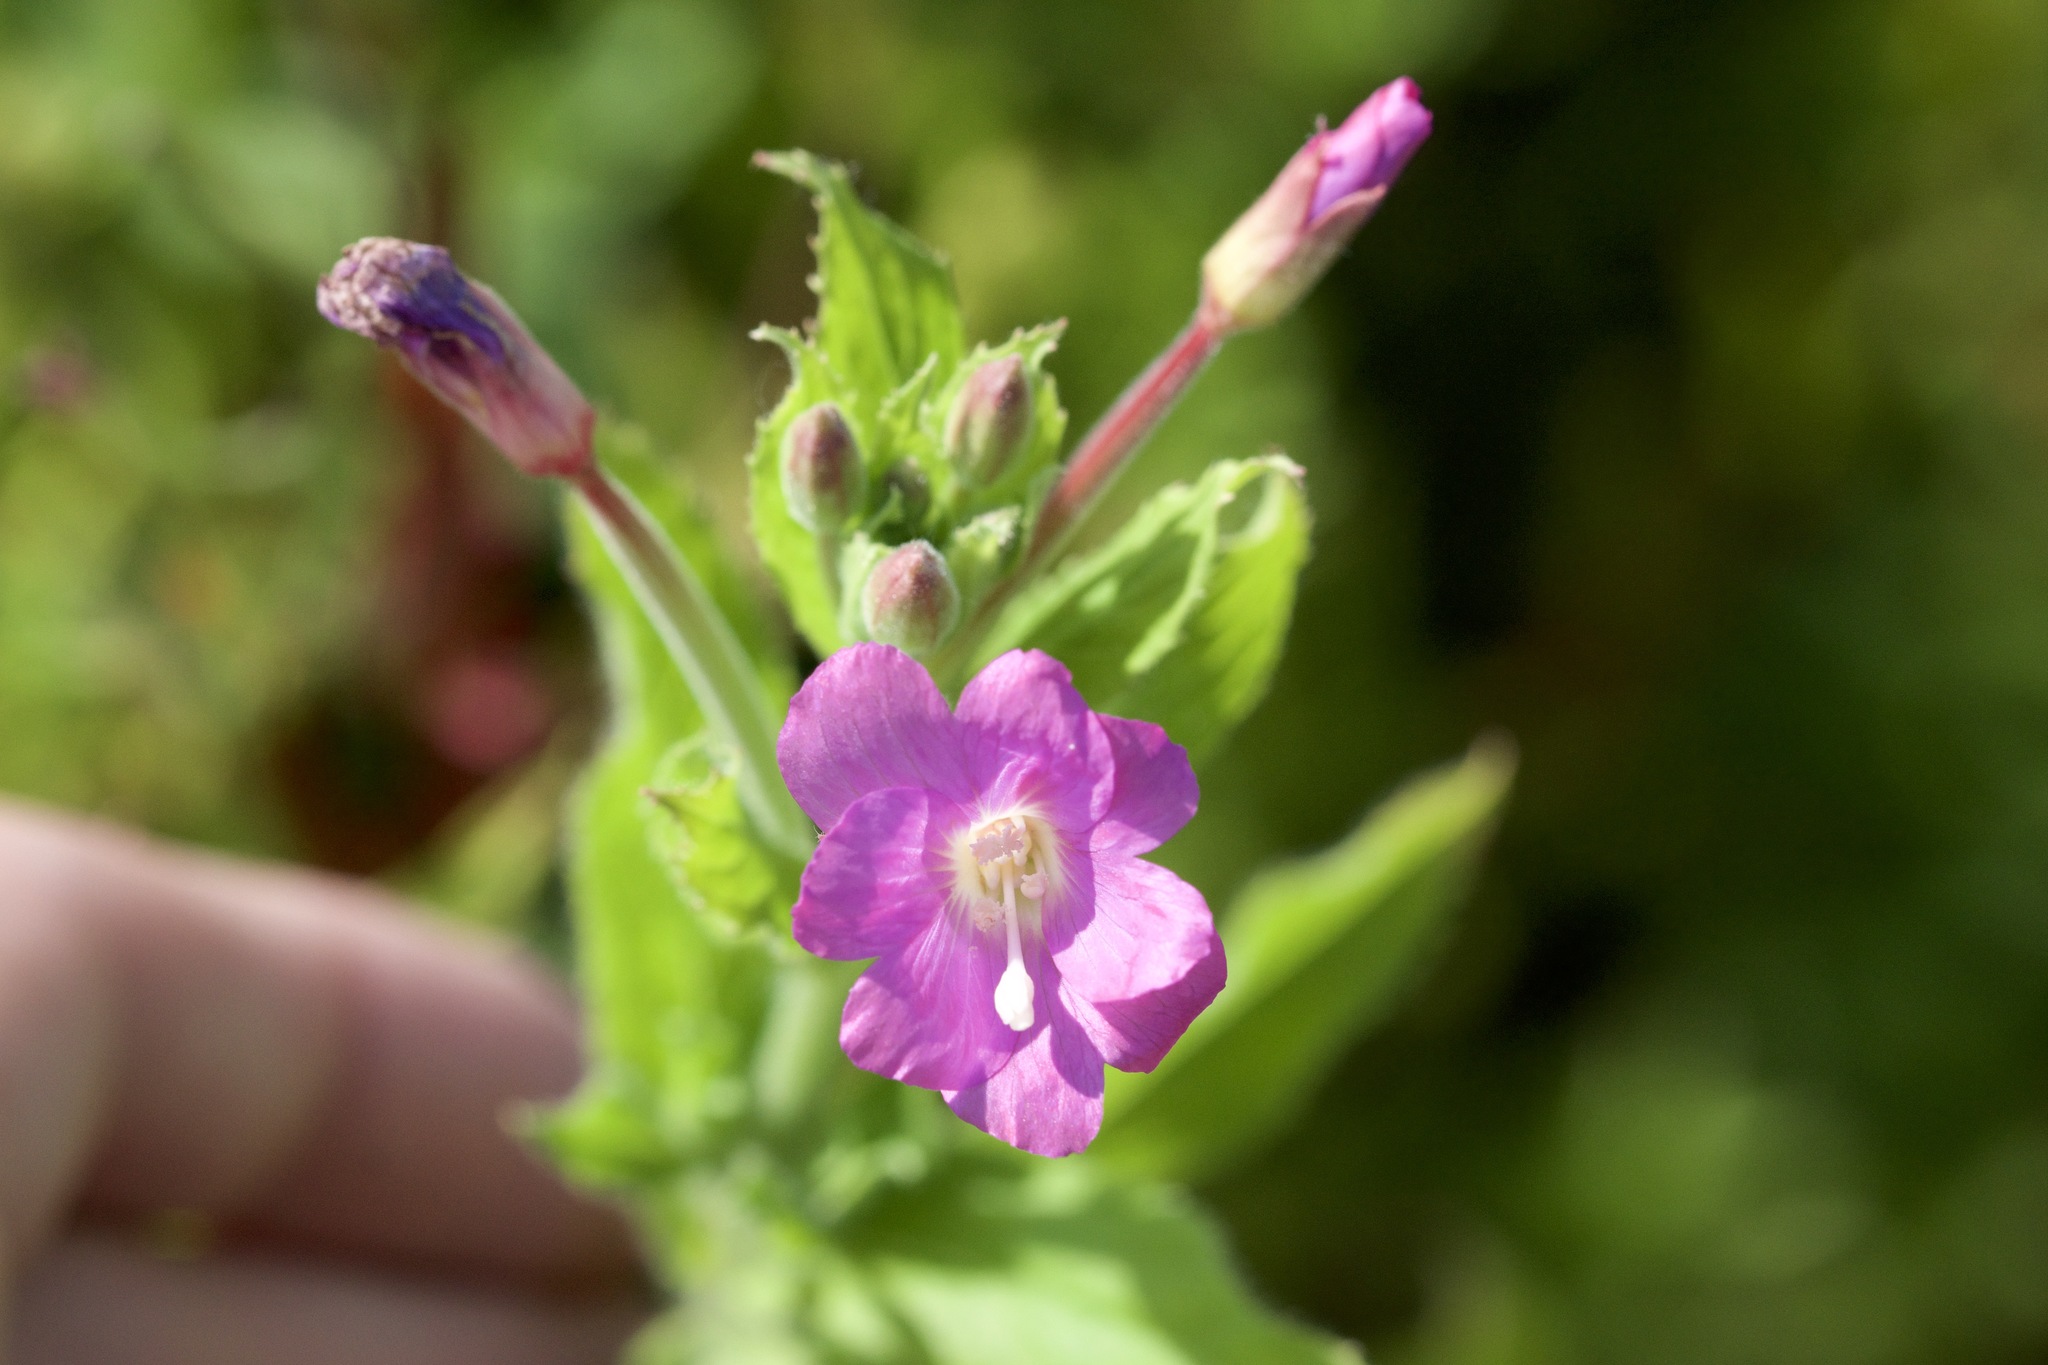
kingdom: Plantae
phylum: Tracheophyta
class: Magnoliopsida
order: Myrtales
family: Onagraceae
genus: Epilobium
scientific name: Epilobium hirsutum
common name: Great willowherb
